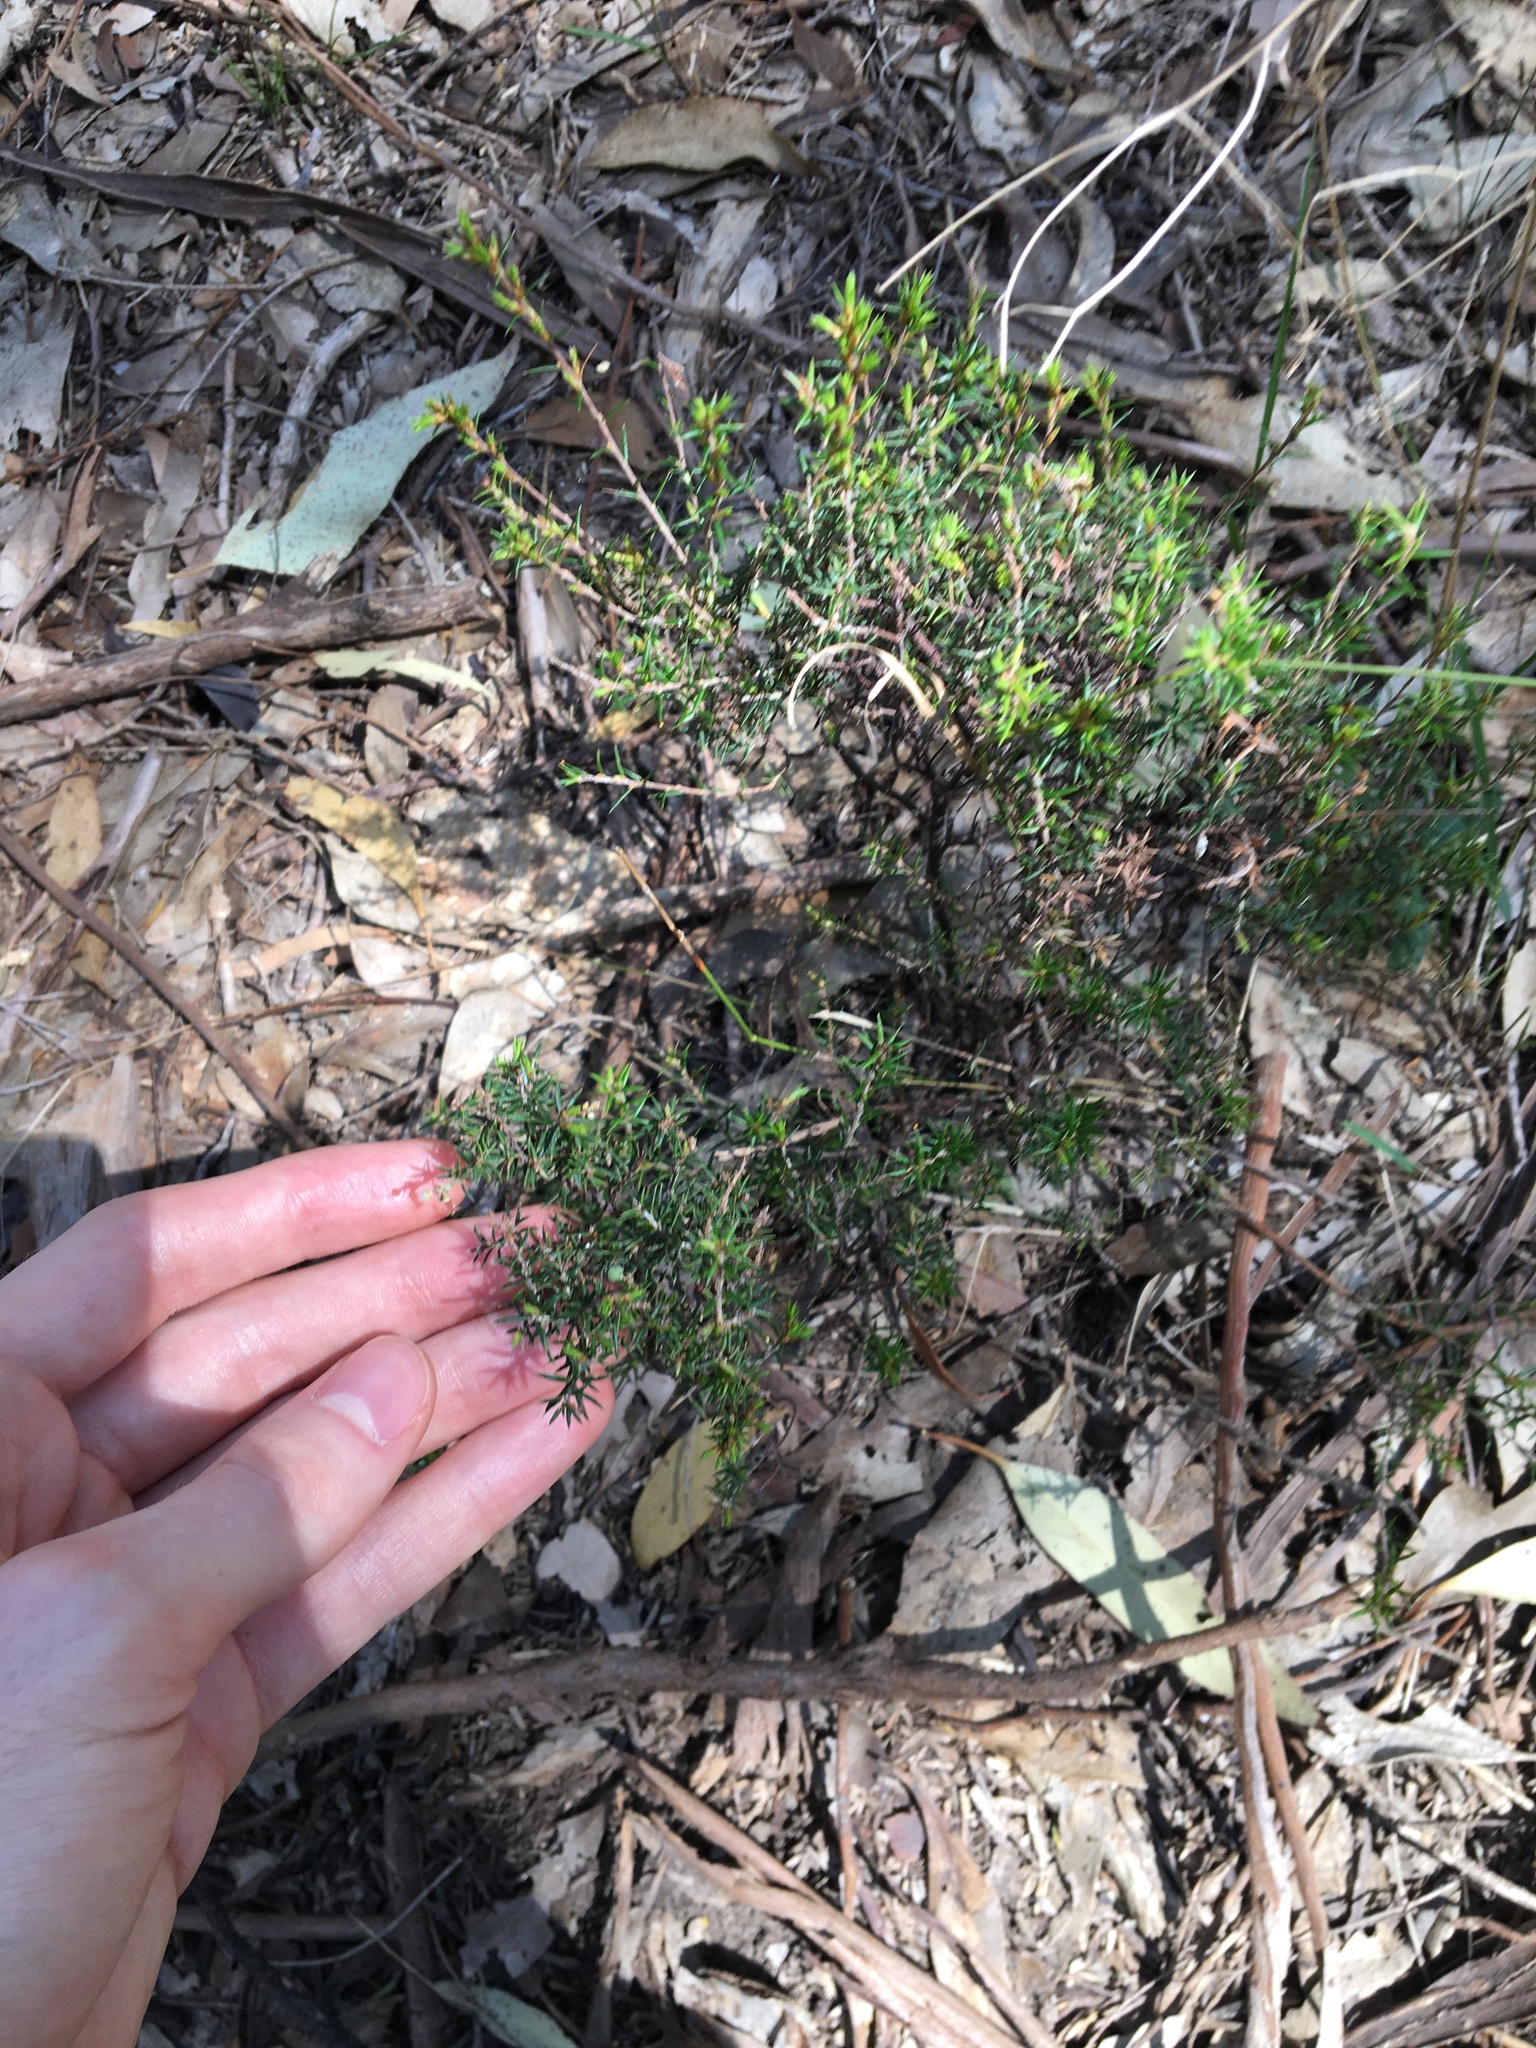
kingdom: Plantae
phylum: Tracheophyta
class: Magnoliopsida
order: Ericales
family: Ericaceae
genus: Lissanthe
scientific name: Lissanthe strigosa
